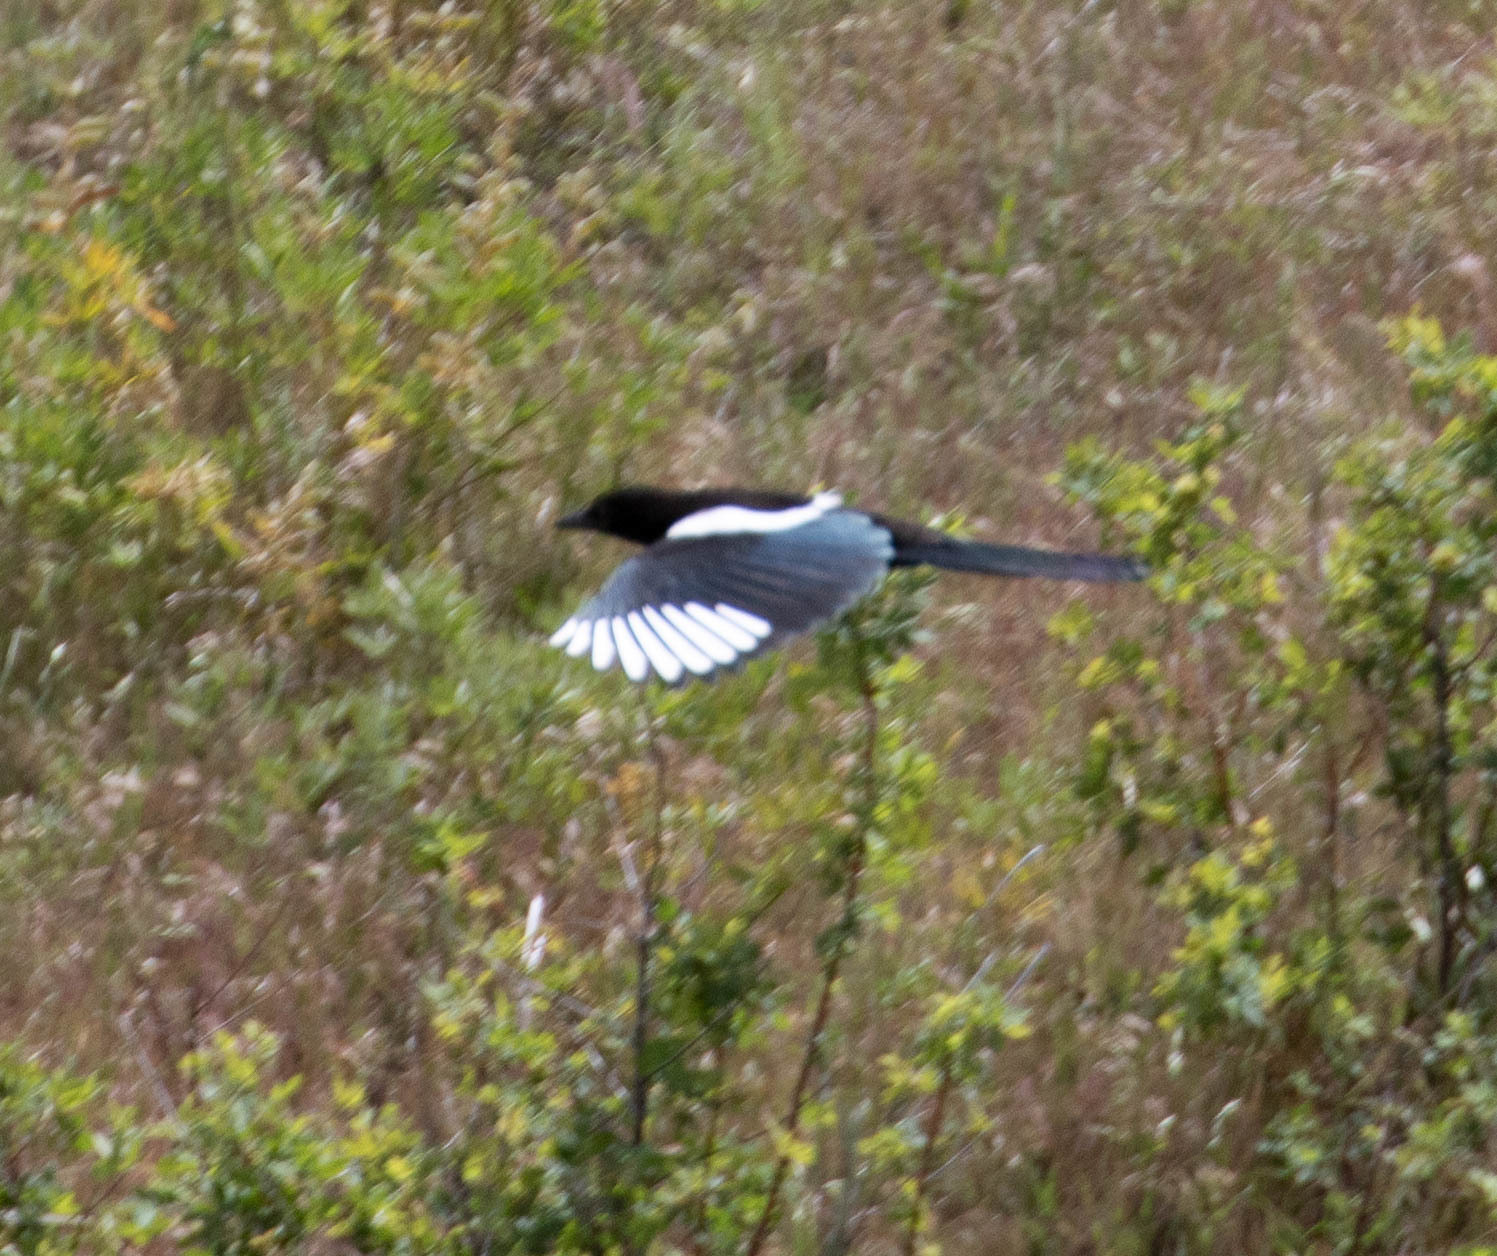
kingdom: Animalia
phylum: Chordata
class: Aves
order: Passeriformes
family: Corvidae
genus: Pica
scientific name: Pica hudsonia
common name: Black-billed magpie
